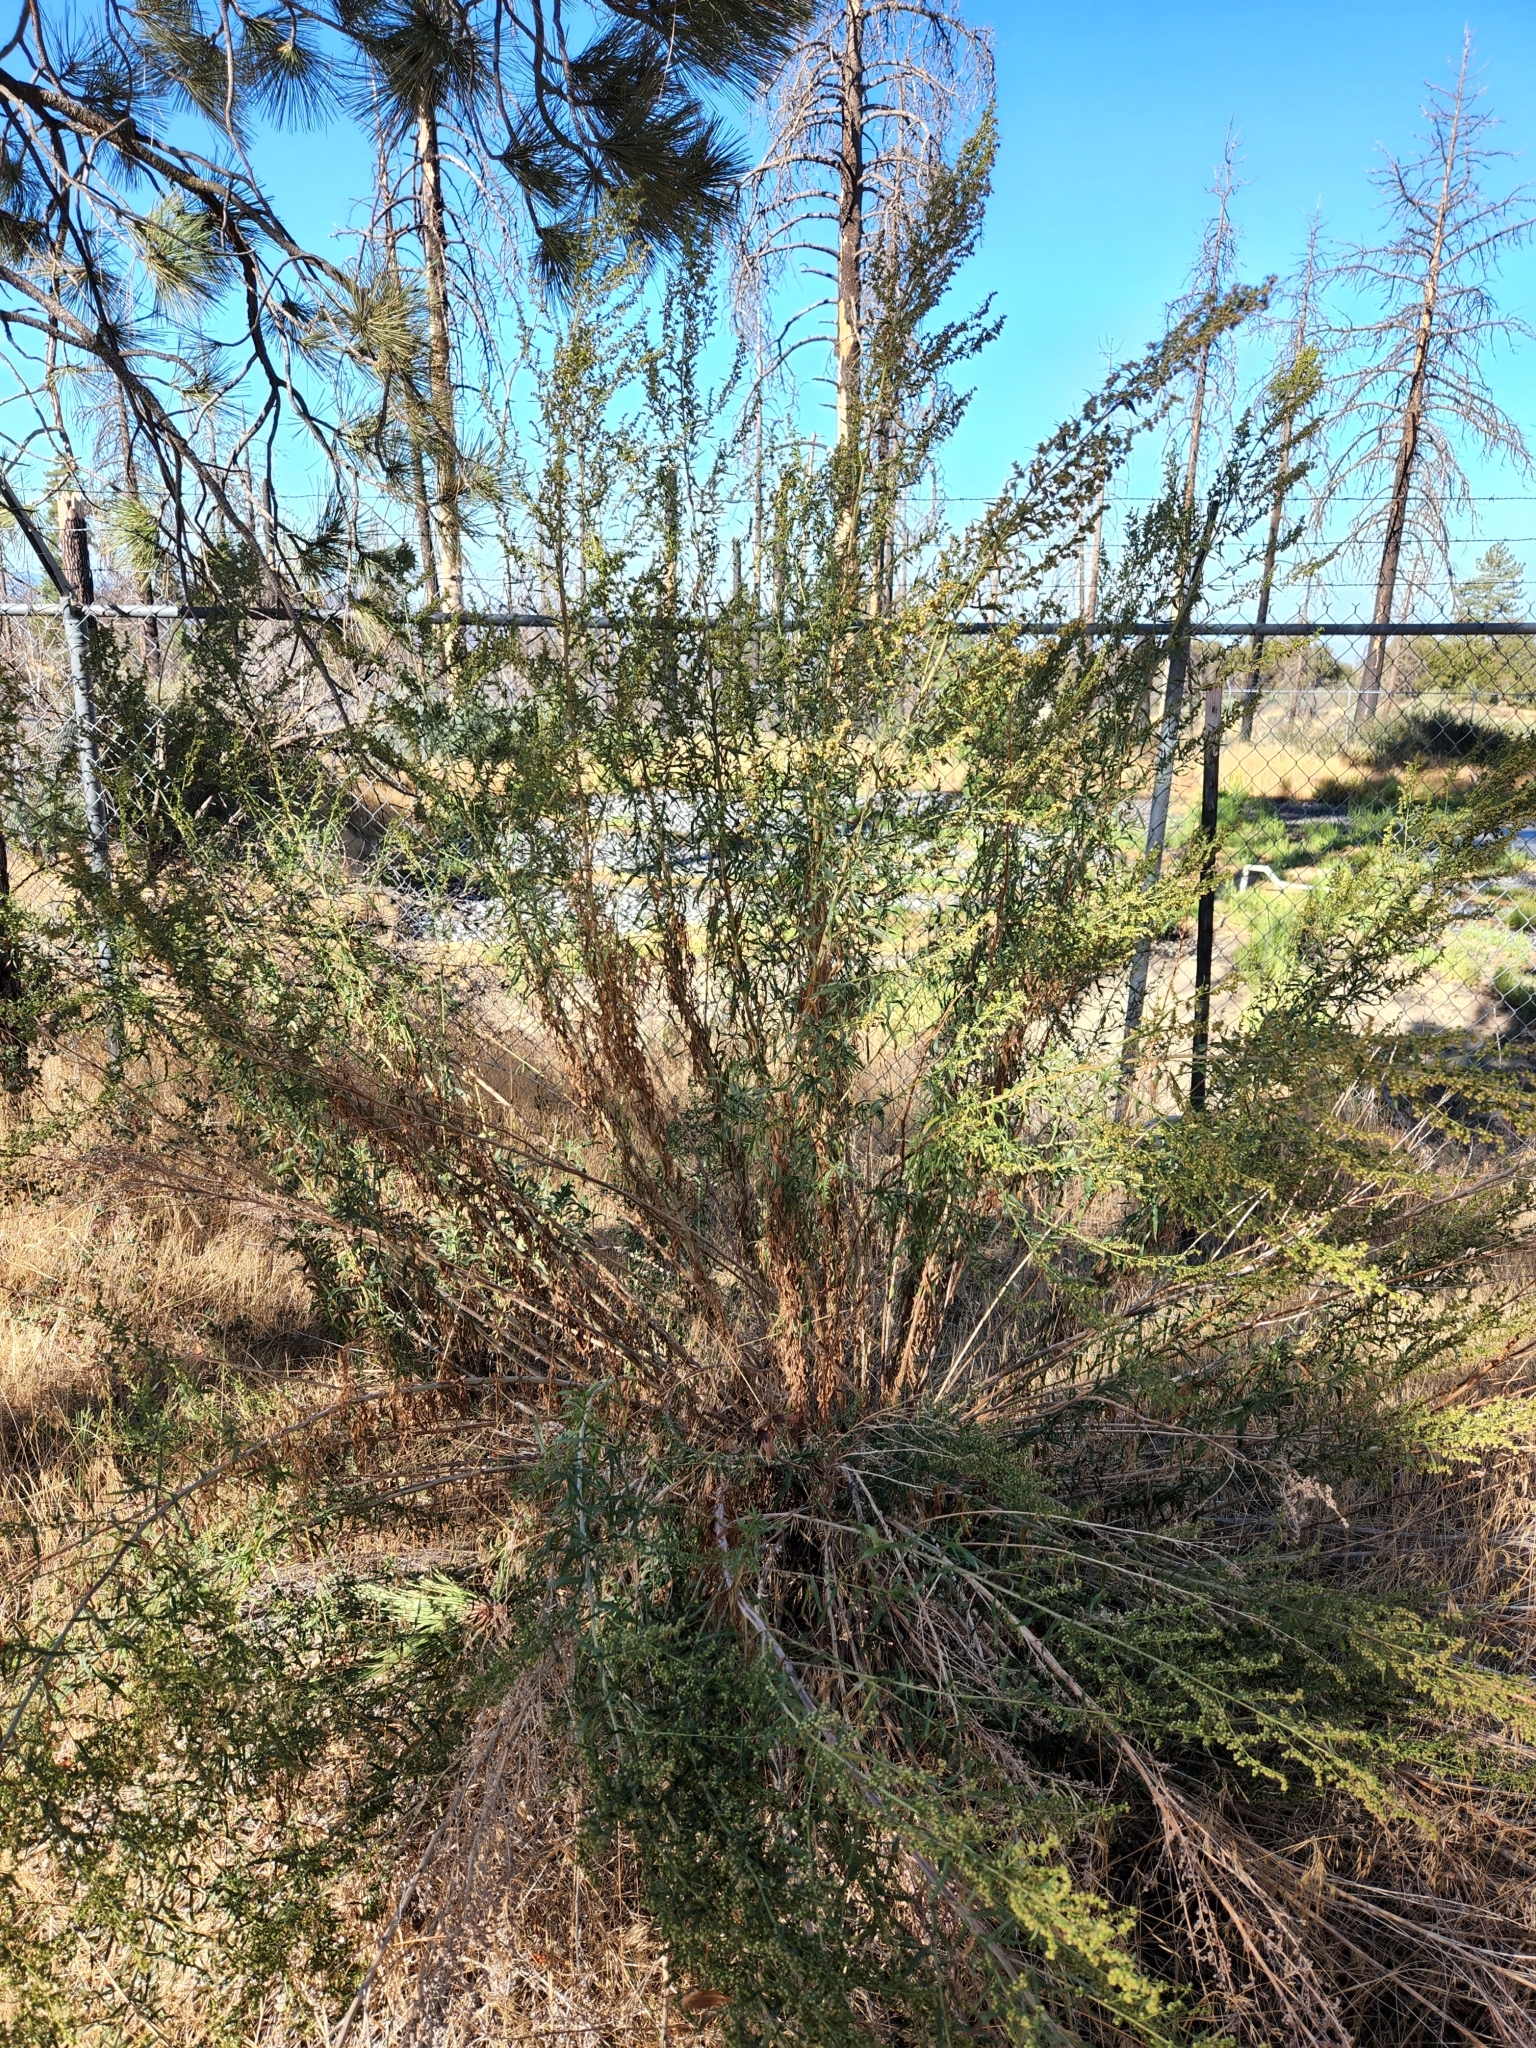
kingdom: Plantae
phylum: Tracheophyta
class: Magnoliopsida
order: Asterales
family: Asteraceae
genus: Artemisia
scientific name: Artemisia dracunculus
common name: Tarragon
